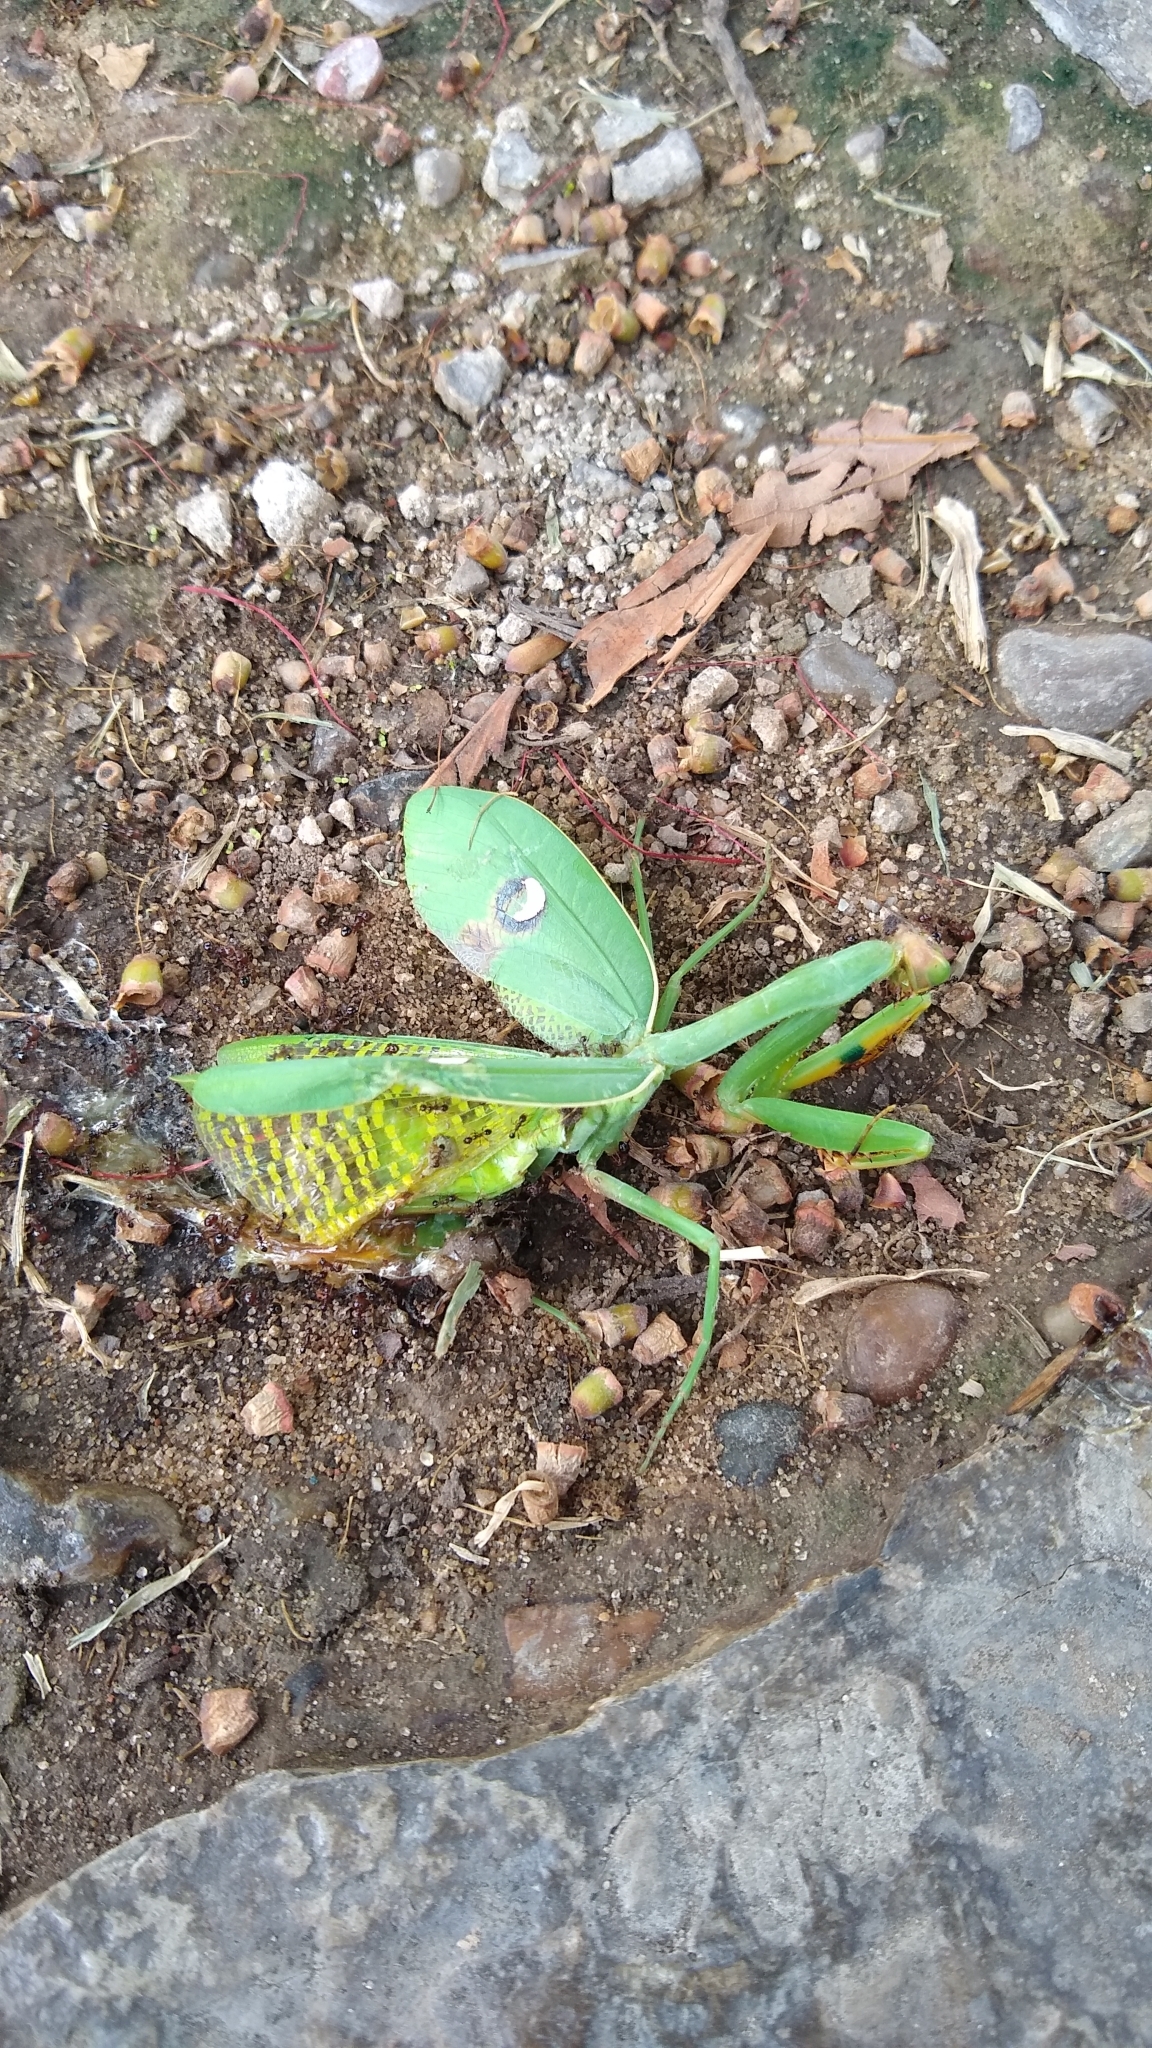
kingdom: Animalia
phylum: Arthropoda
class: Insecta
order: Mantodea
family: Mantidae
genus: Stagmatoptera
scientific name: Stagmatoptera hyaloptera
